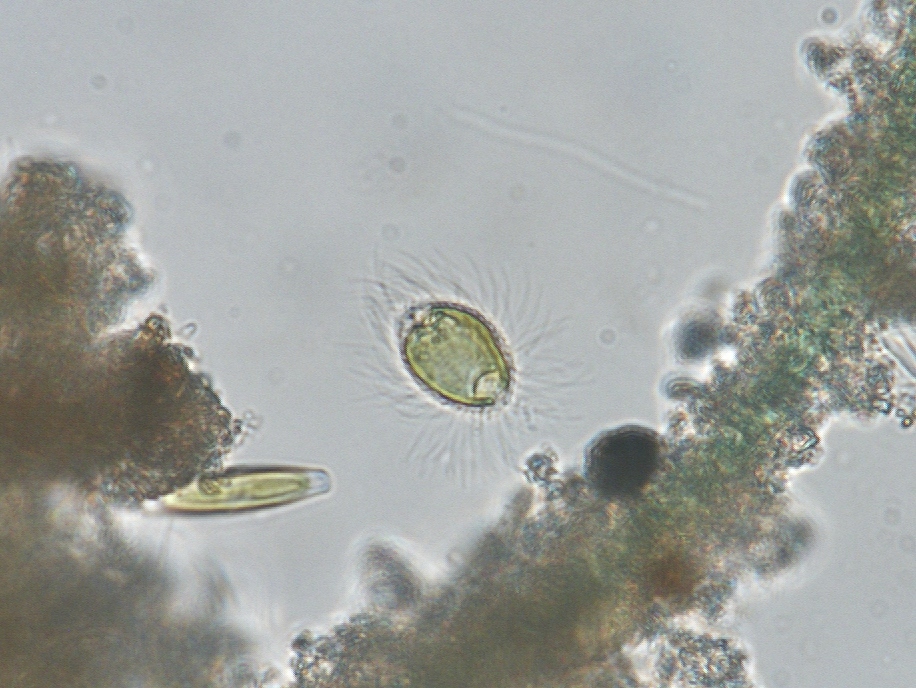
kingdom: Chromista
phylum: Ochrophyta
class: Chrysophyceae
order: Synurales
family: Mallomonadaceae
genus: Mallomonas
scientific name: Mallomonas
